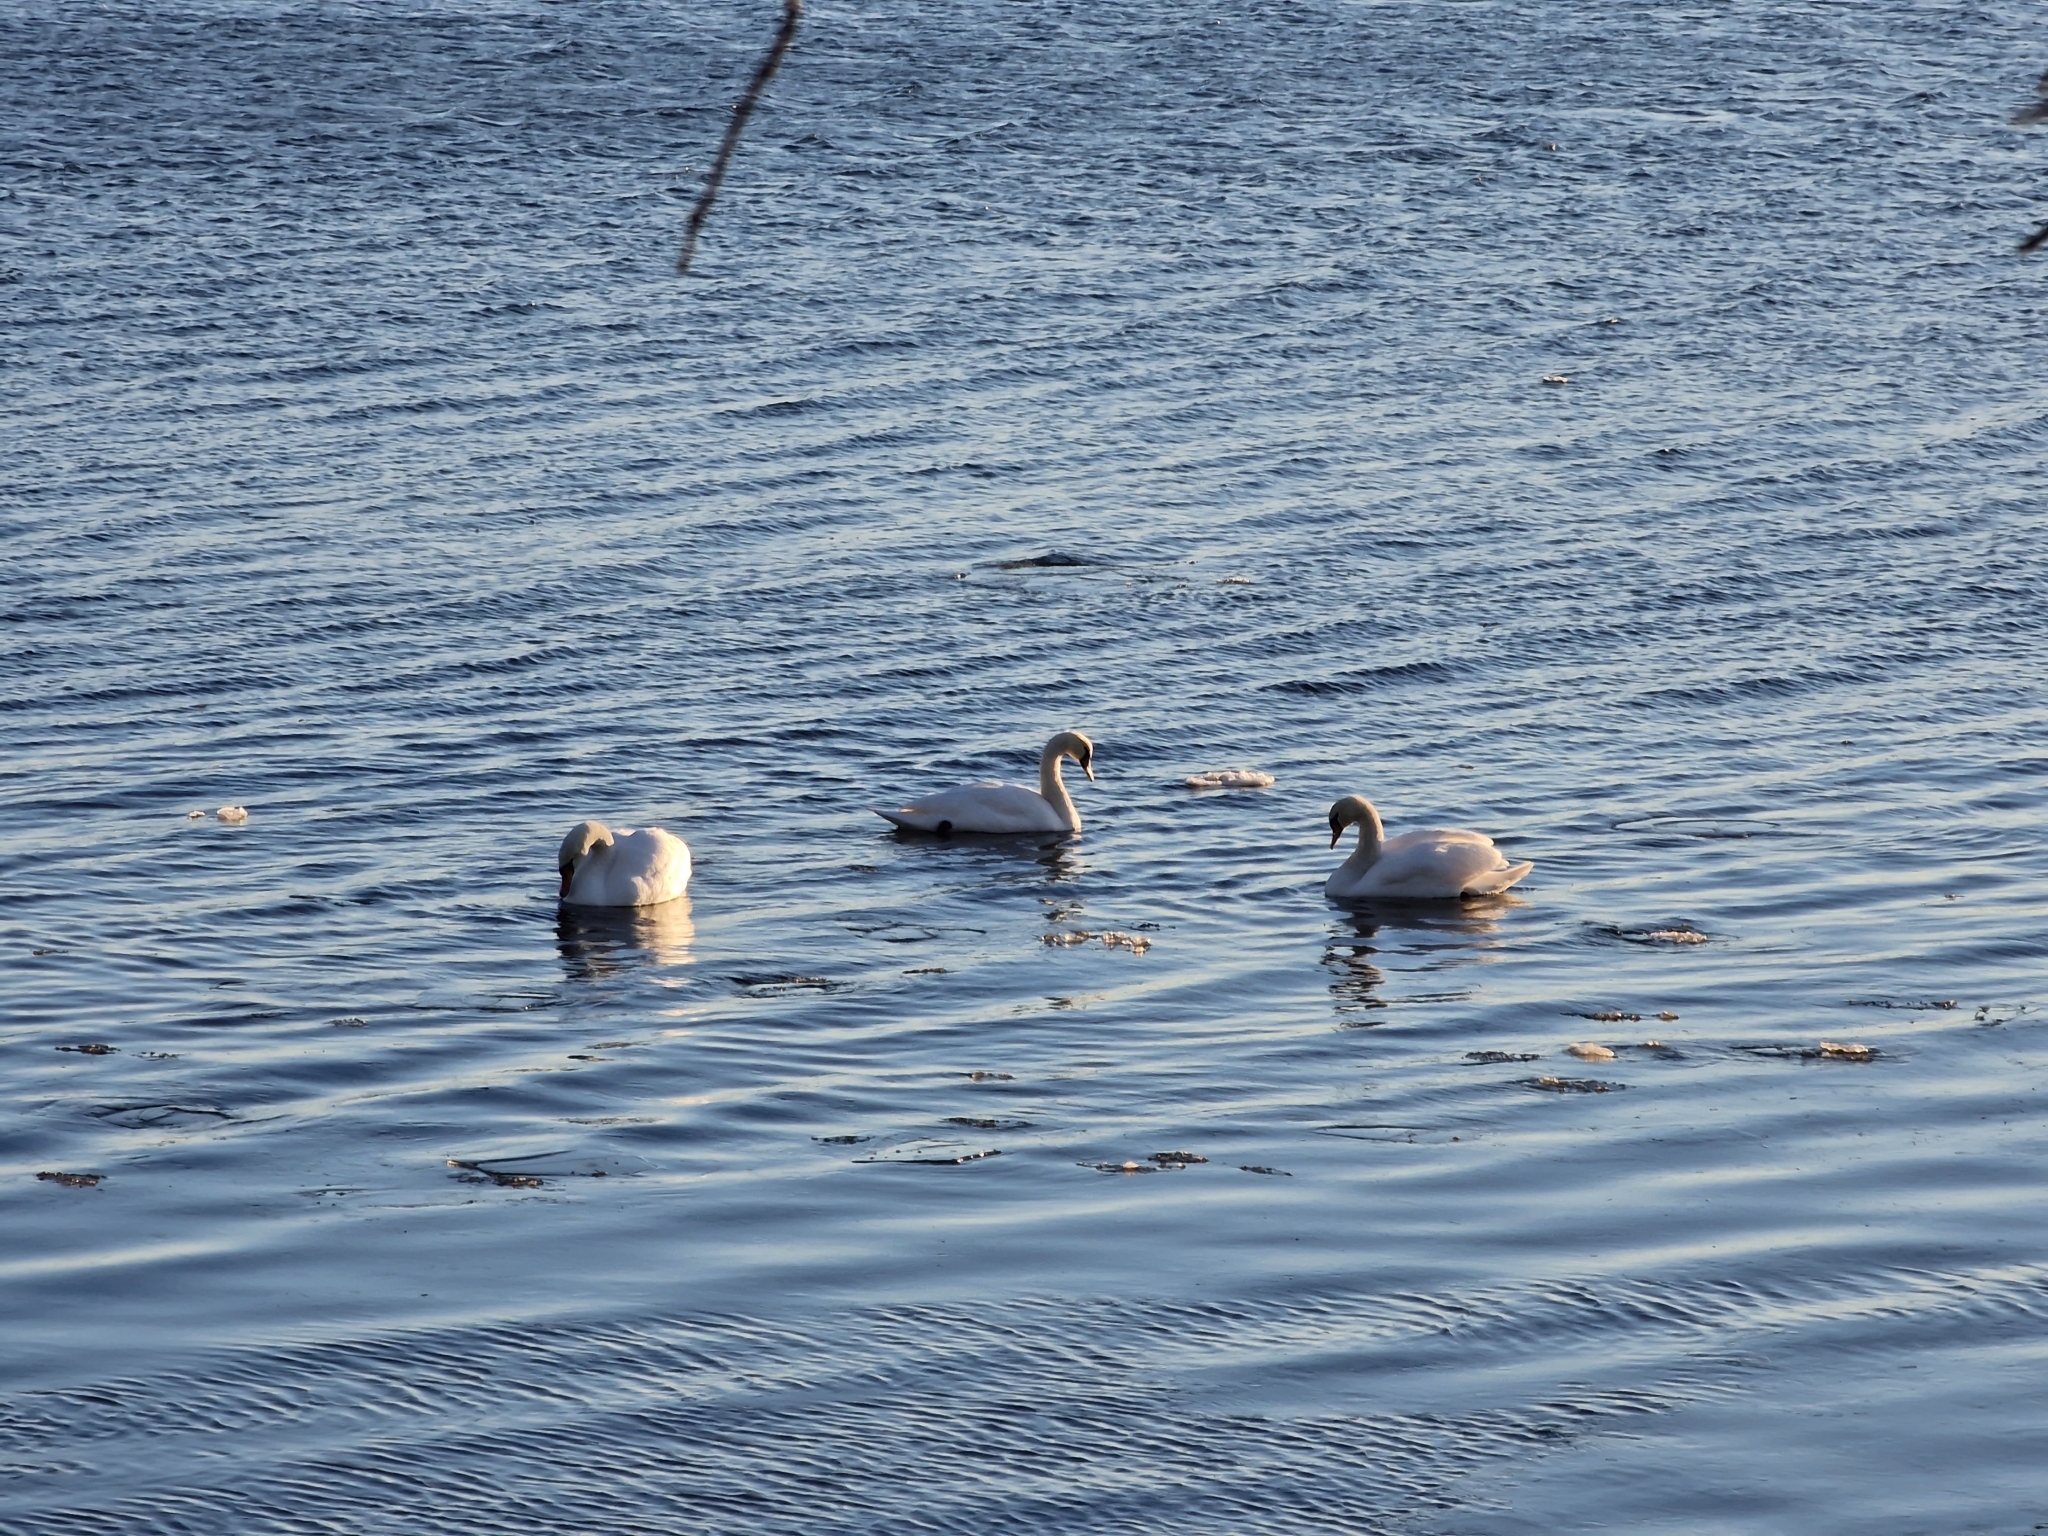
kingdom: Animalia
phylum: Chordata
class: Aves
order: Anseriformes
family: Anatidae
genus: Cygnus
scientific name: Cygnus olor
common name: Mute swan
